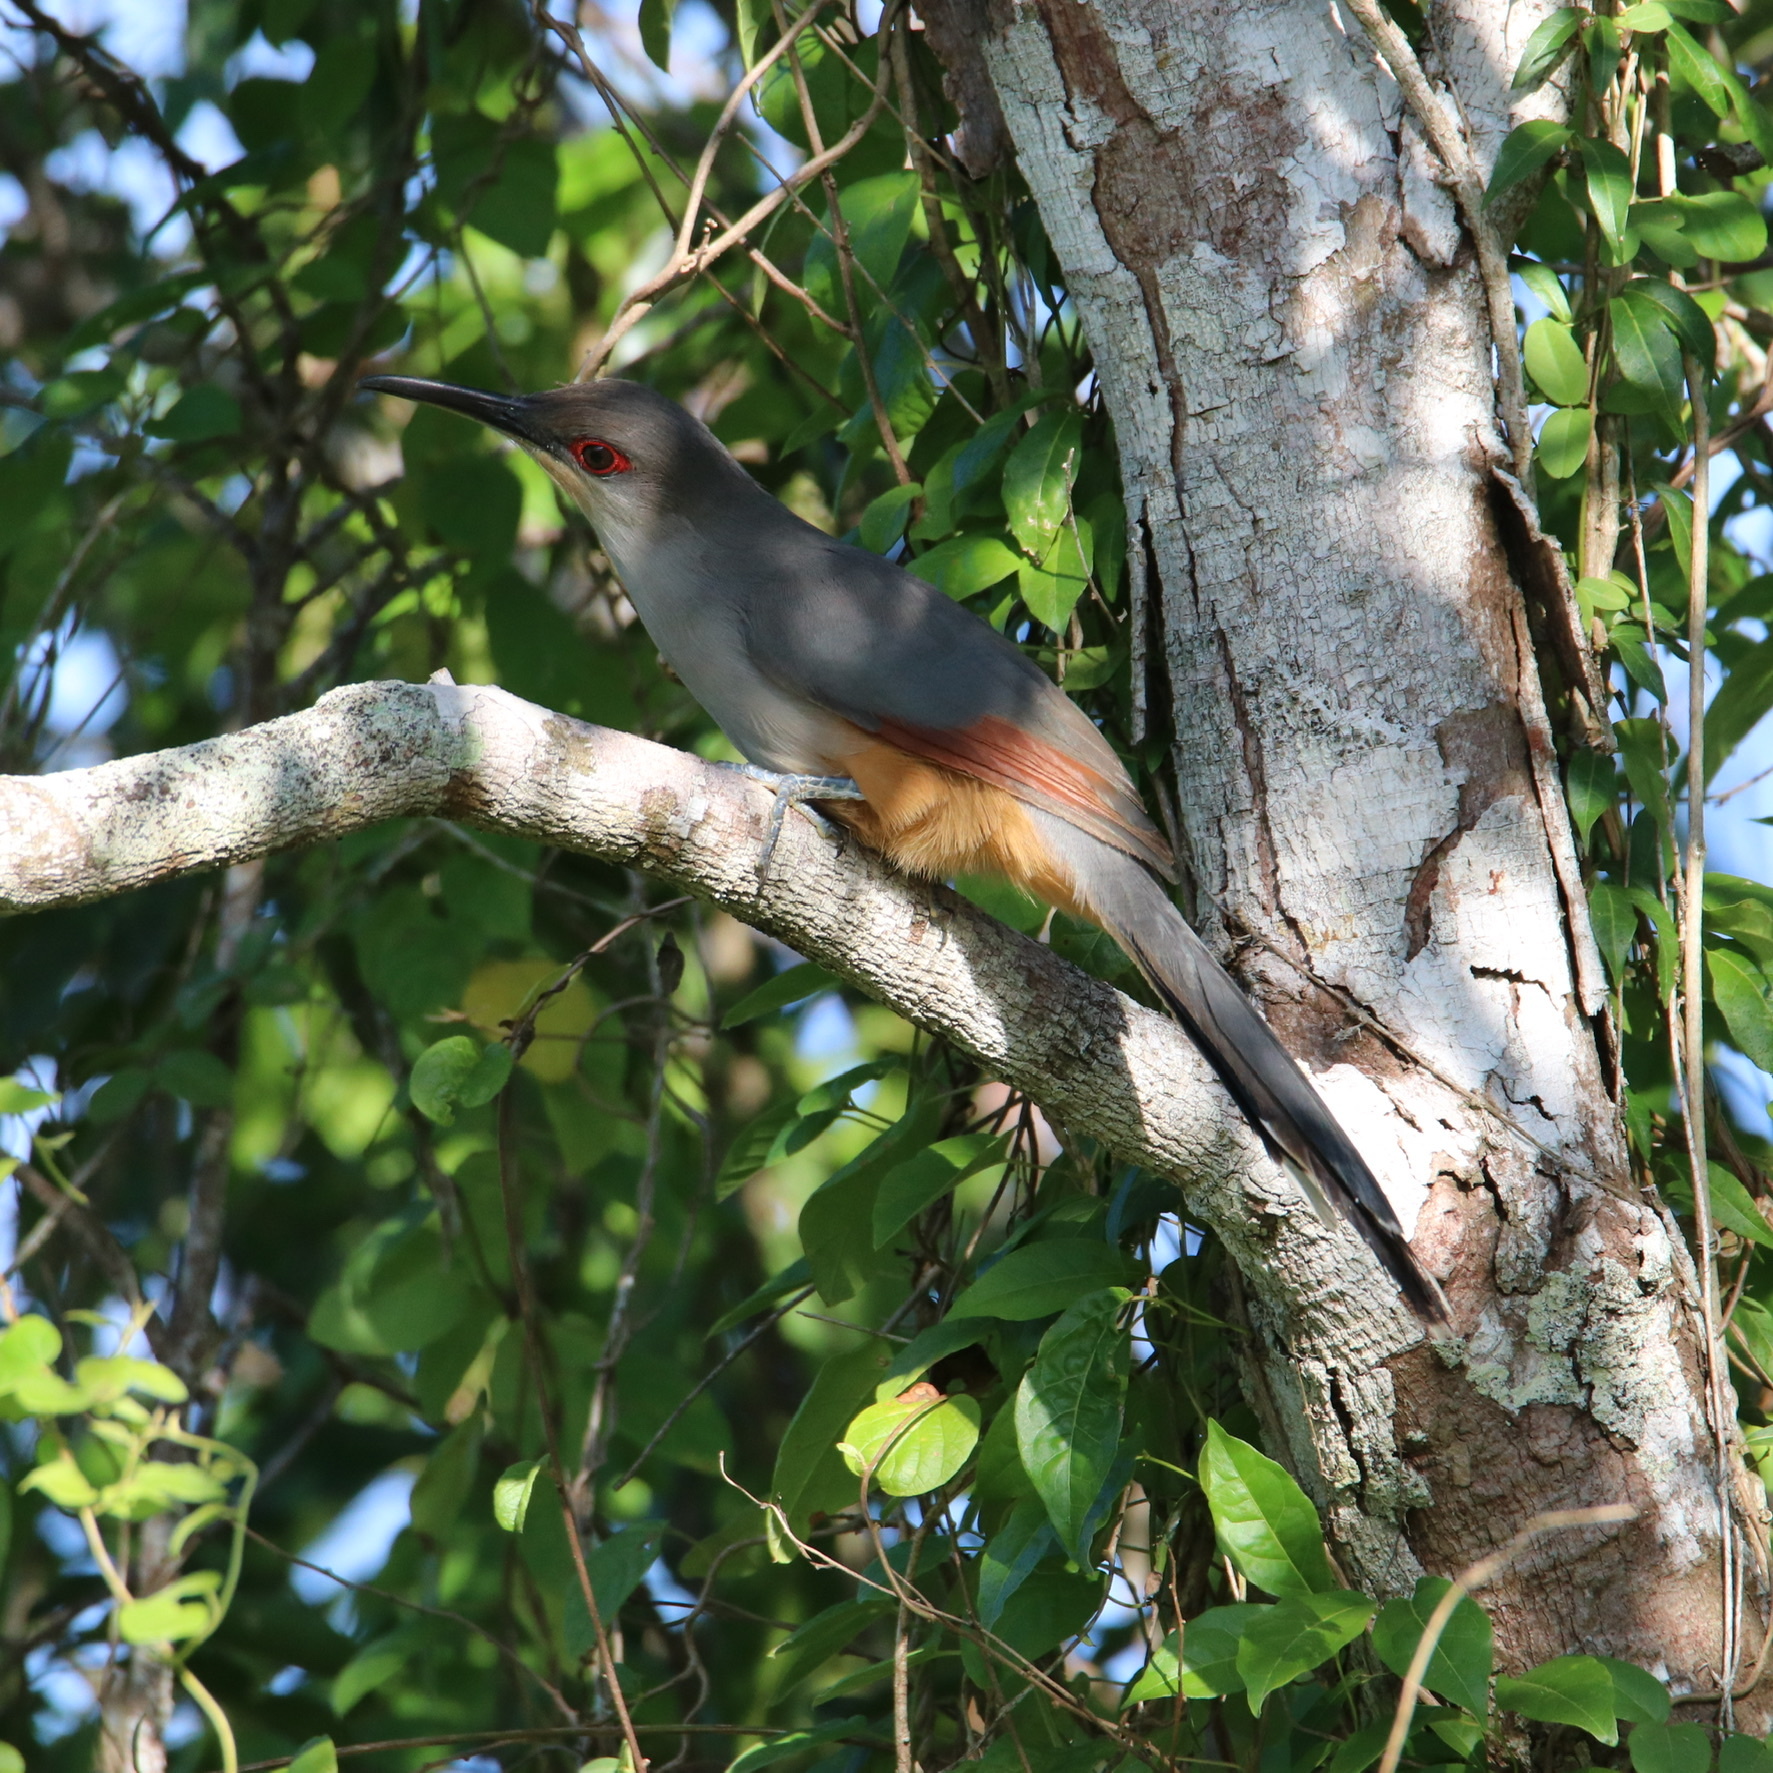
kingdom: Animalia
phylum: Chordata
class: Aves
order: Cuculiformes
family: Cuculidae
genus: Saurothera
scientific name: Saurothera longirostris
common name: Hispaniolan lizard-cuckoo
